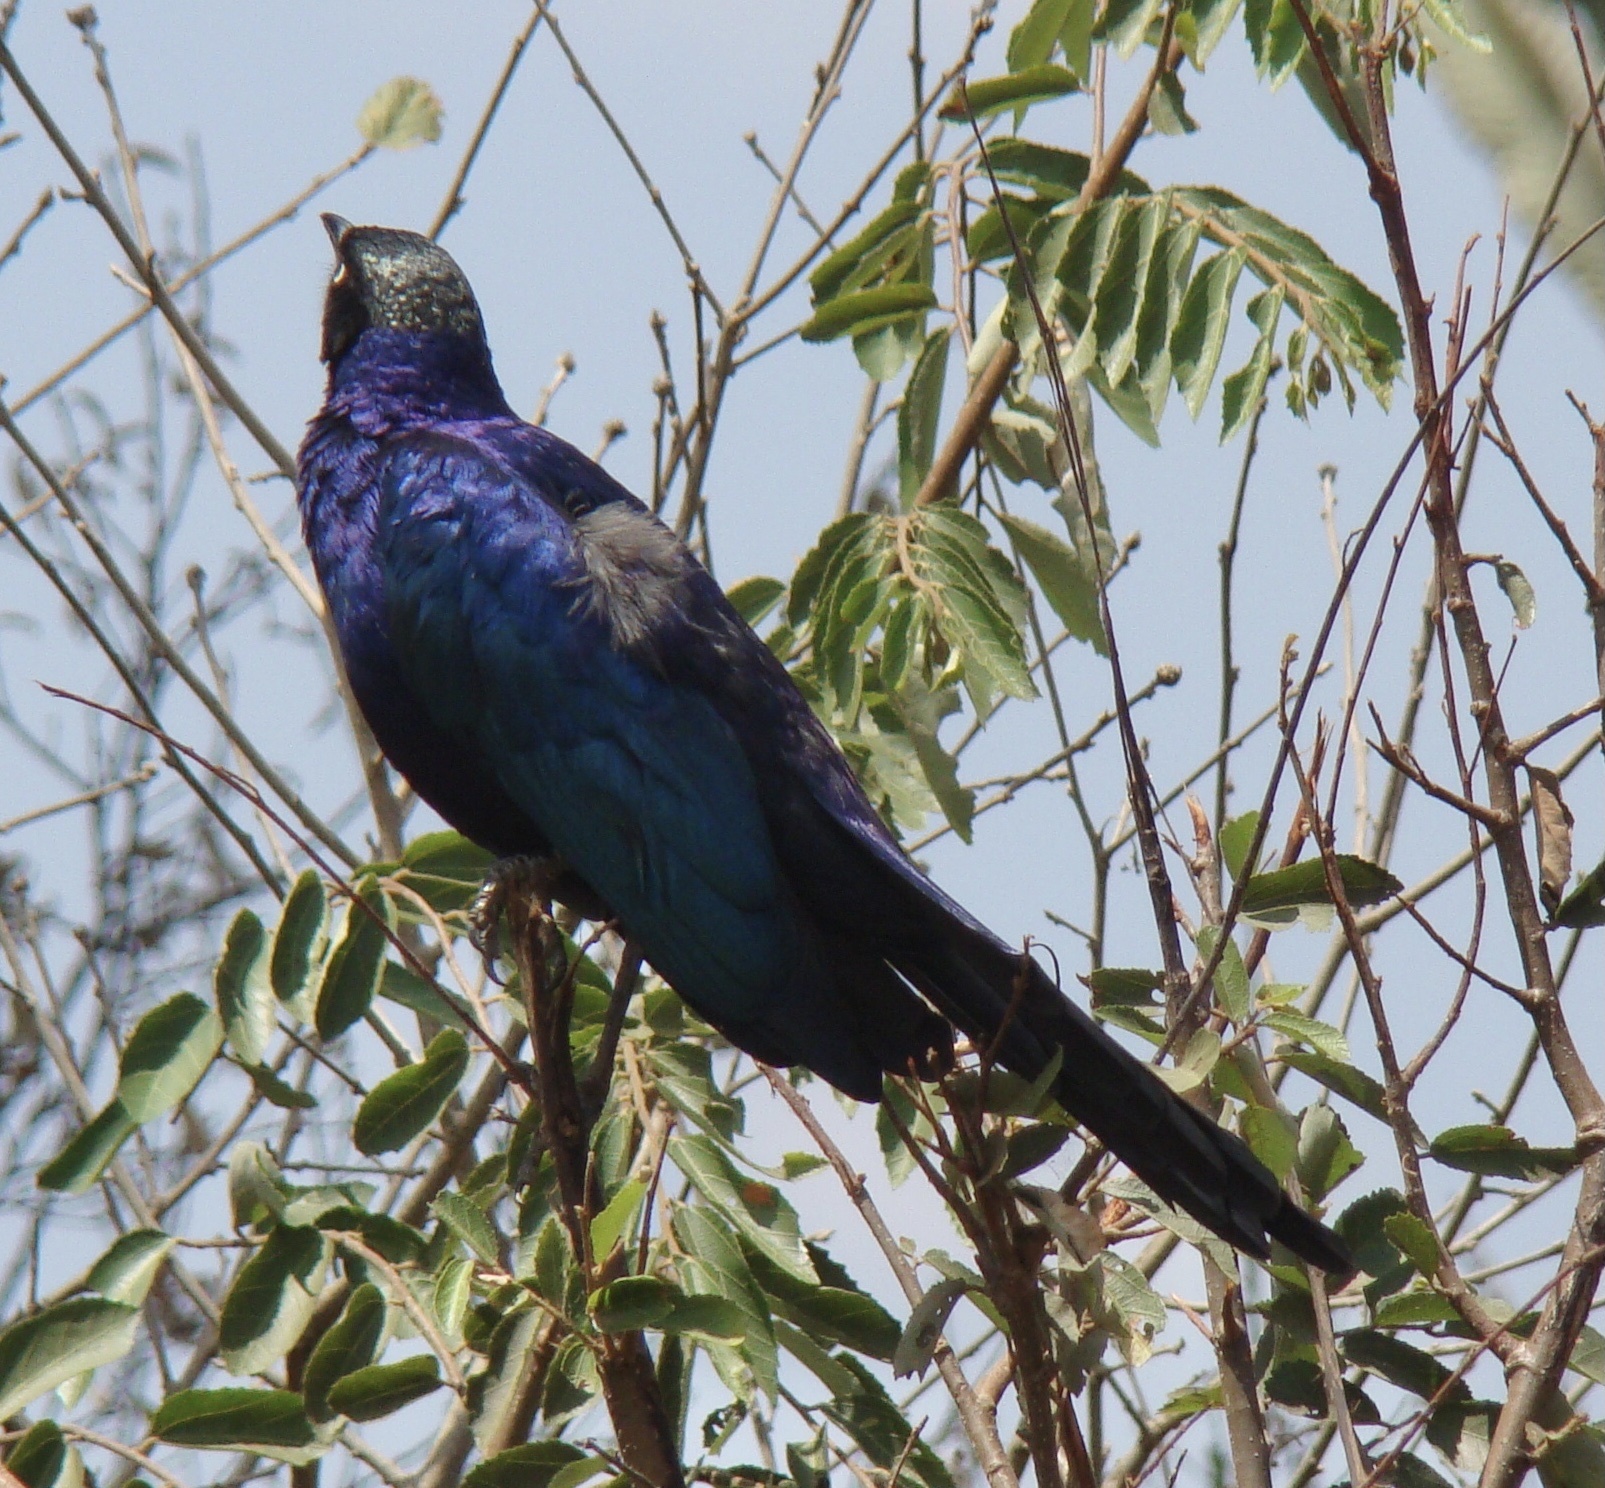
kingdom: Animalia
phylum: Chordata
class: Aves
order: Passeriformes
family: Sturnidae
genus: Lamprotornis
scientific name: Lamprotornis purpuroptera
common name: Rüppell's starling
